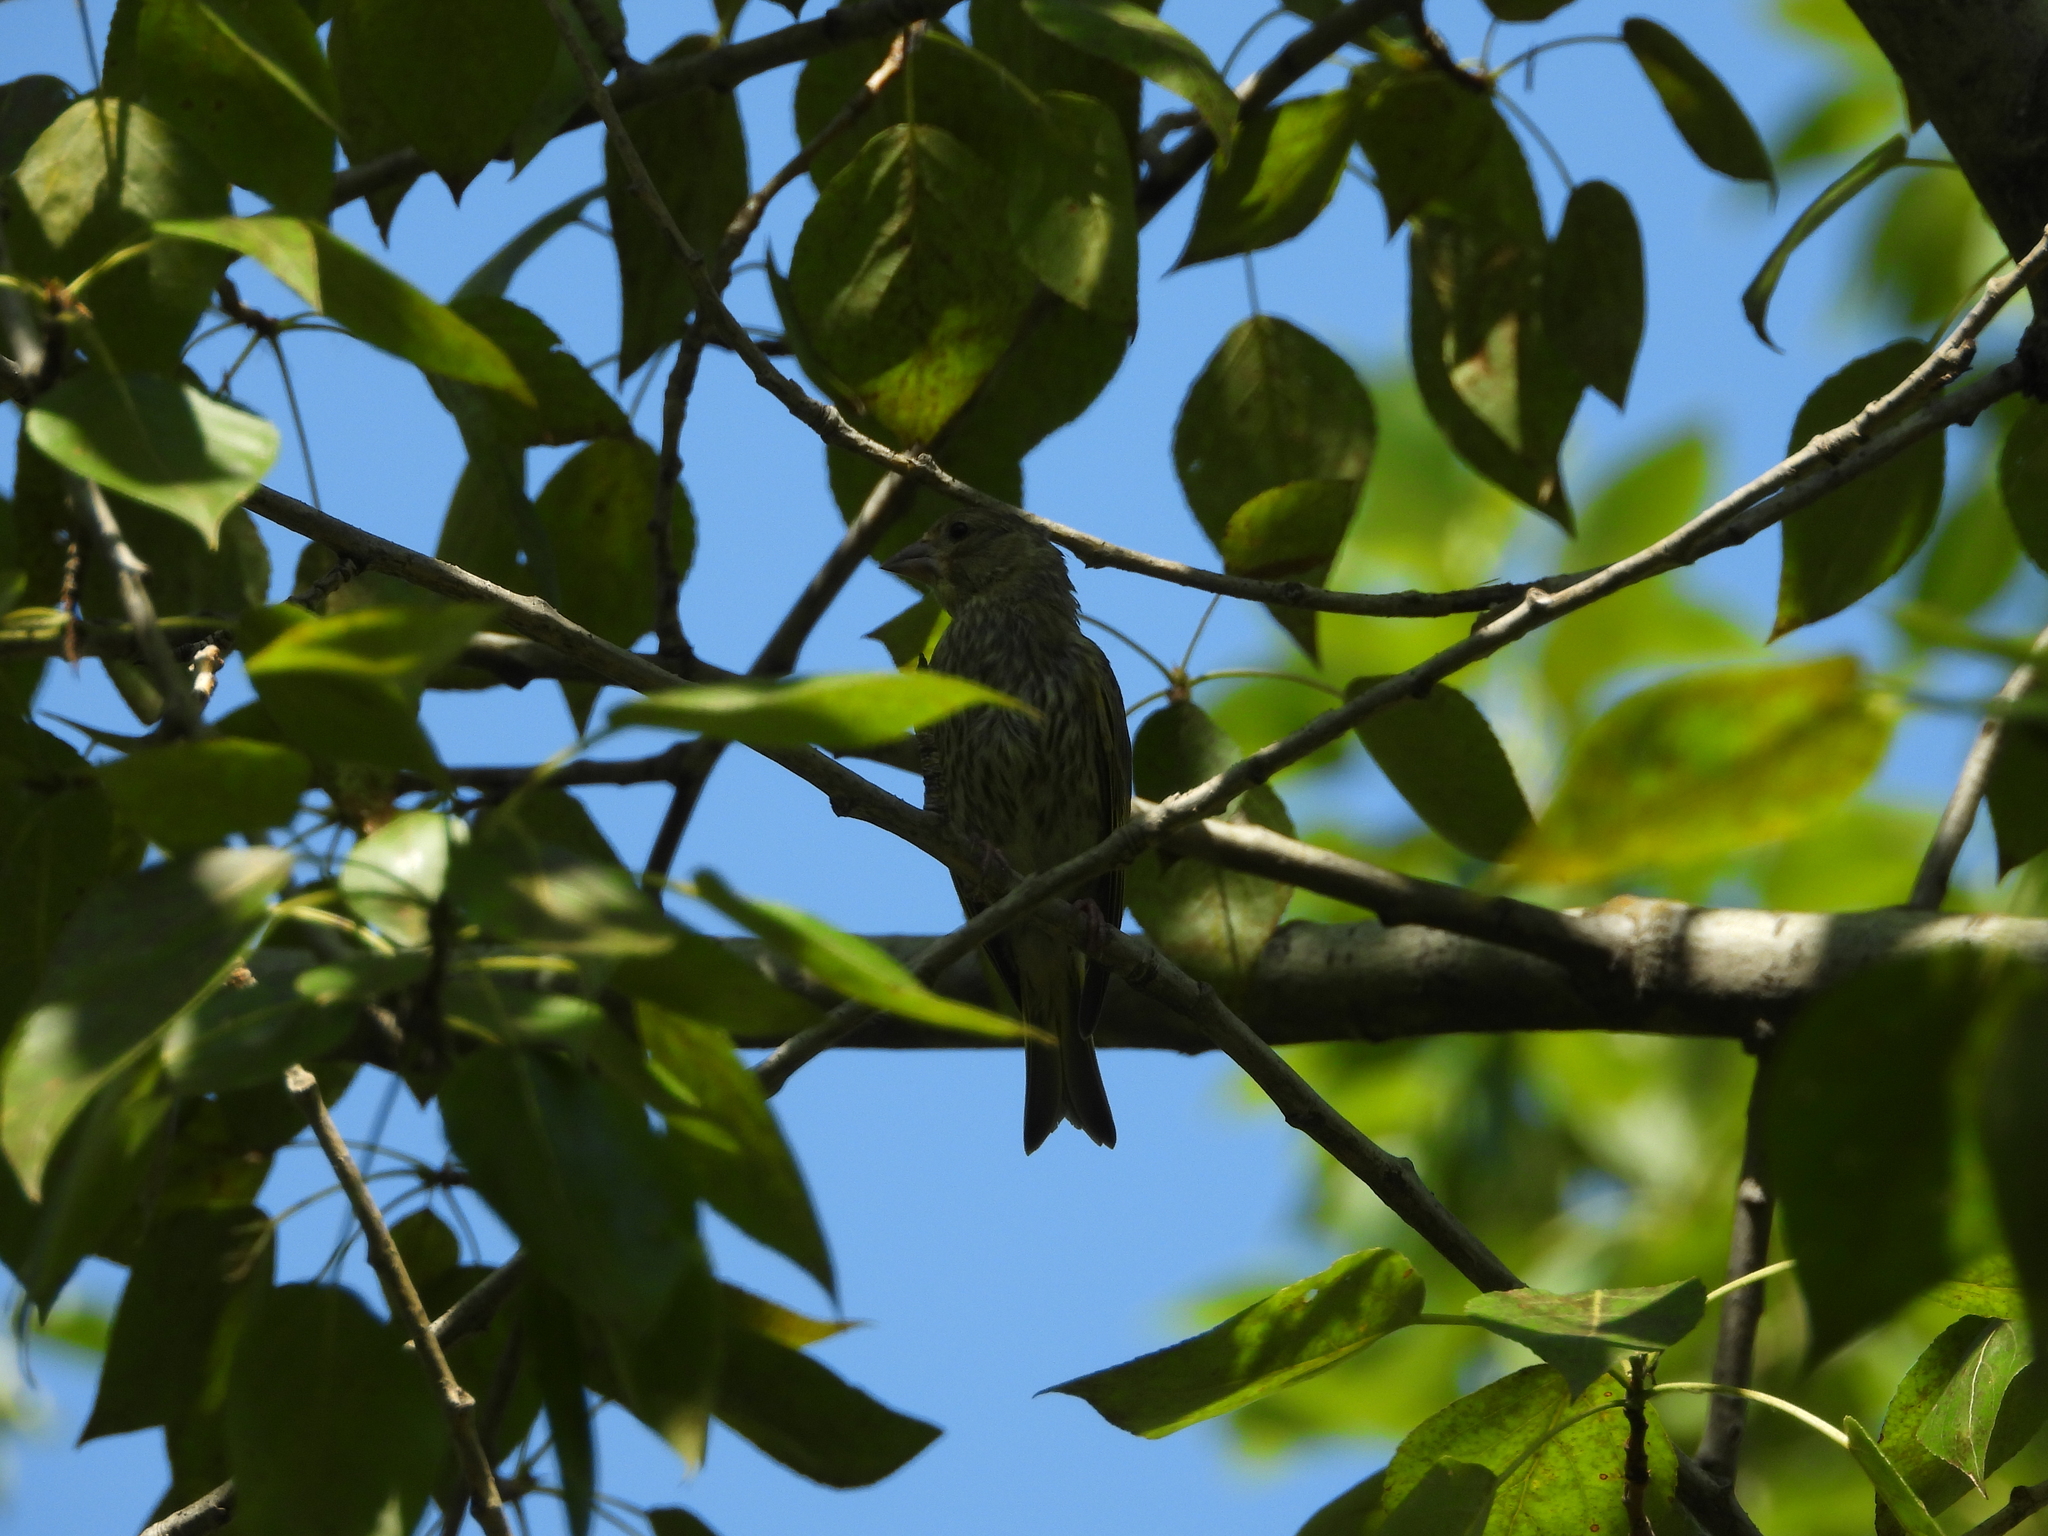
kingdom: Plantae
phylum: Tracheophyta
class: Liliopsida
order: Poales
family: Poaceae
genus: Chloris
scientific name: Chloris chloris
